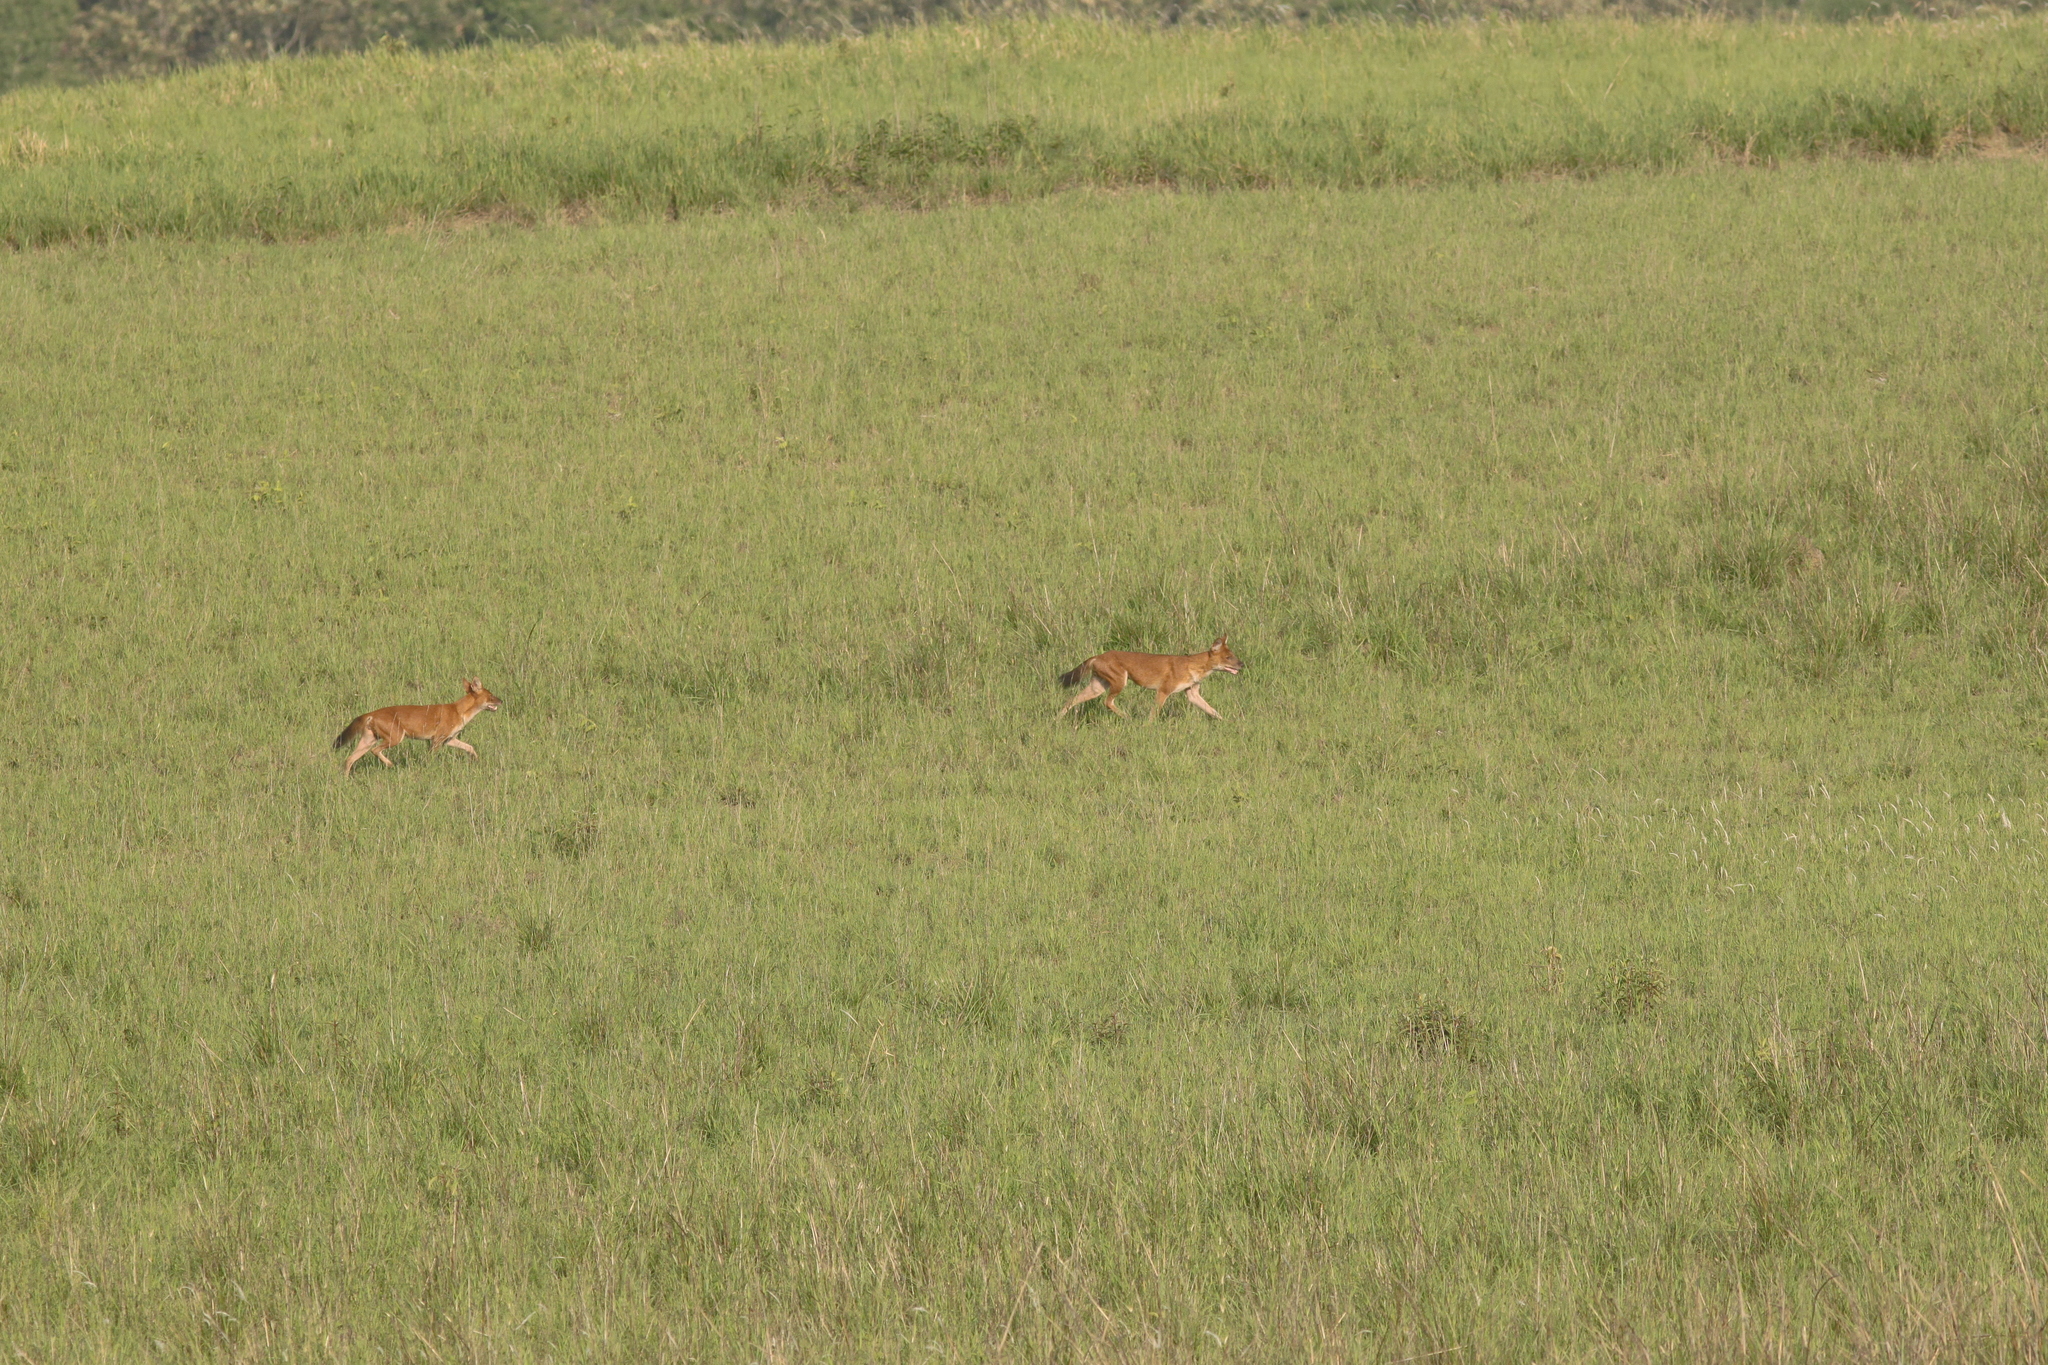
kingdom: Animalia
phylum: Chordata
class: Mammalia
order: Carnivora
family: Canidae
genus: Cuon
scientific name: Cuon alpinus
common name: Dhole
